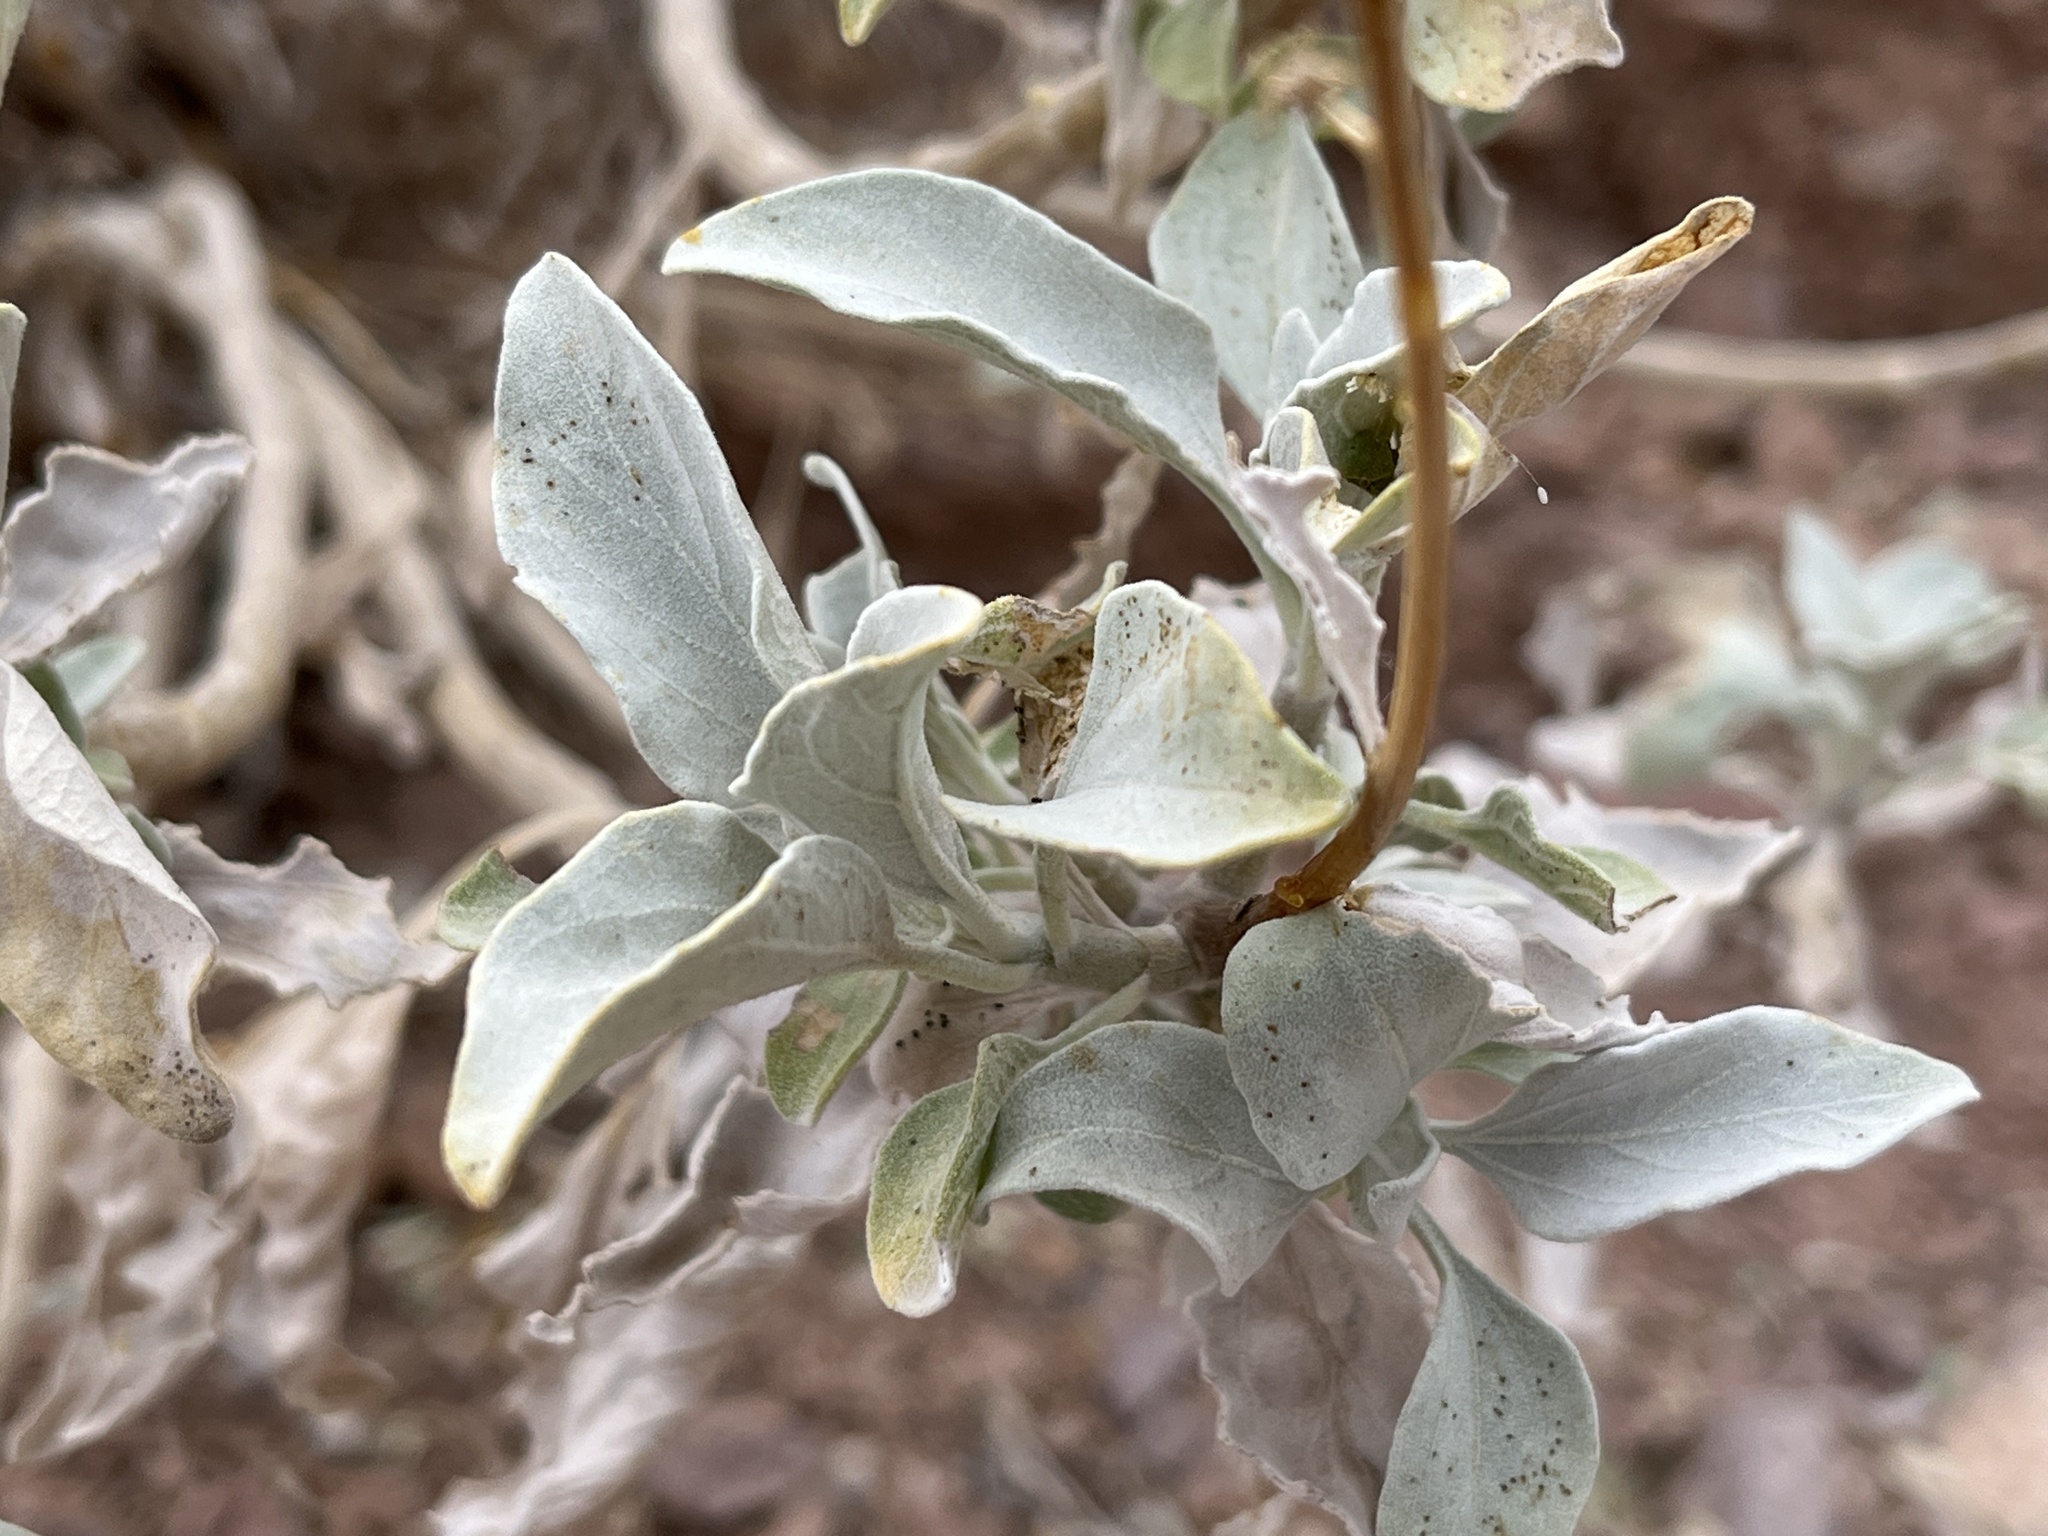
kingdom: Plantae
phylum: Tracheophyta
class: Magnoliopsida
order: Asterales
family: Asteraceae
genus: Encelia
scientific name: Encelia farinosa
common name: Brittlebush
